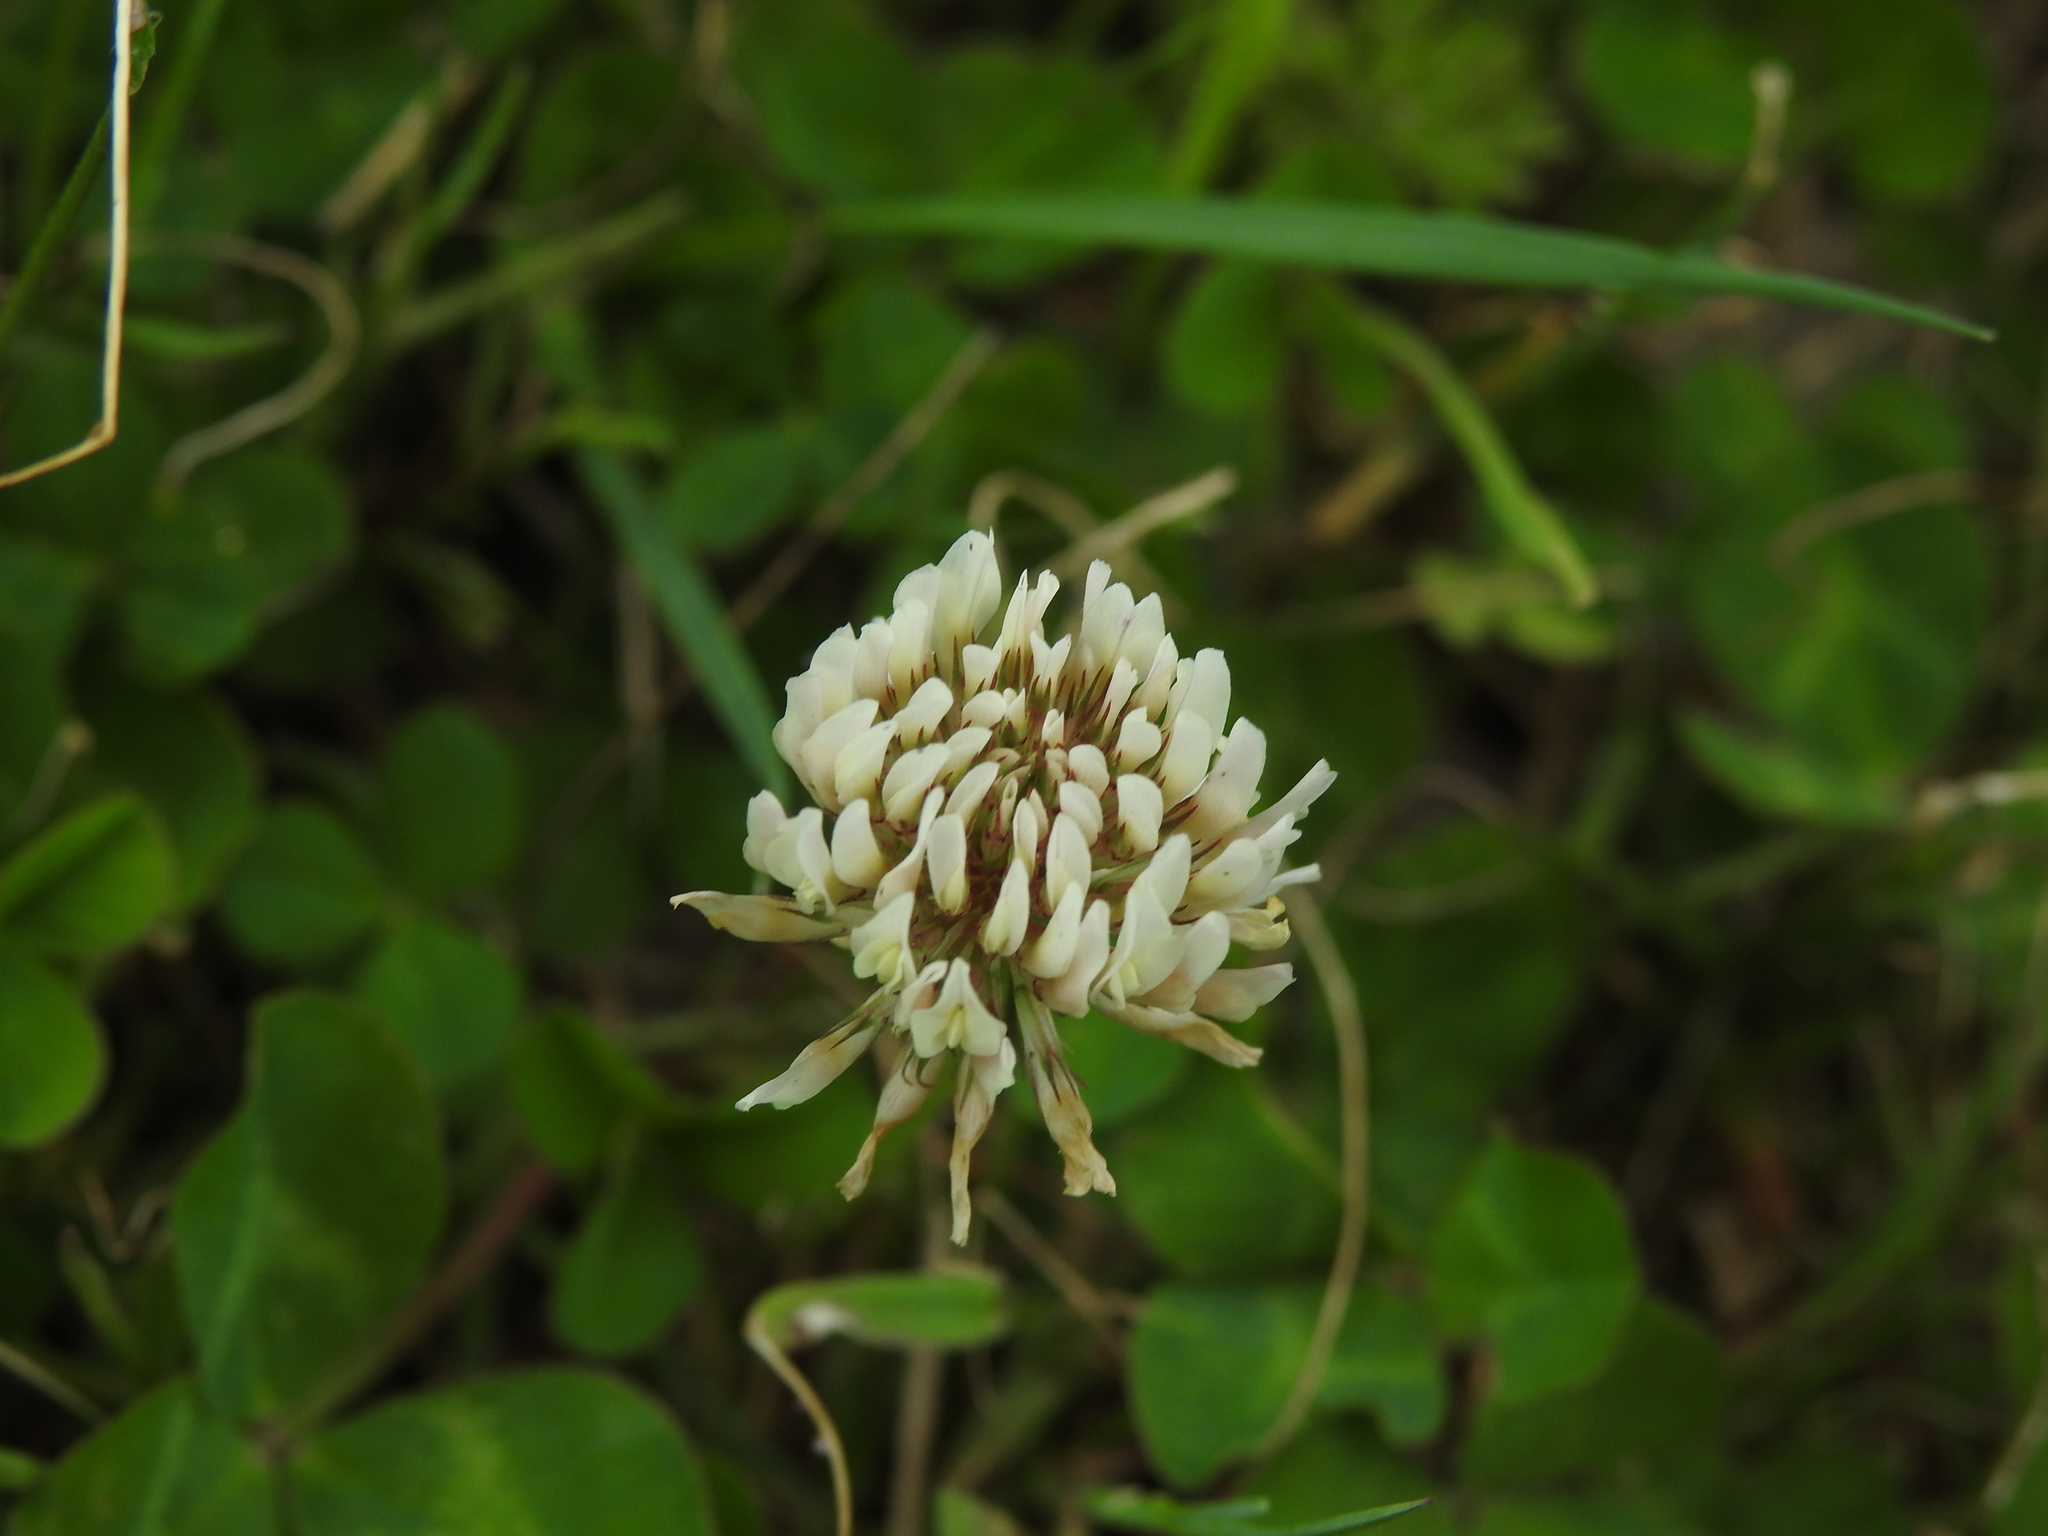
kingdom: Plantae
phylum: Tracheophyta
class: Magnoliopsida
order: Fabales
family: Fabaceae
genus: Trifolium
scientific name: Trifolium repens
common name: White clover
